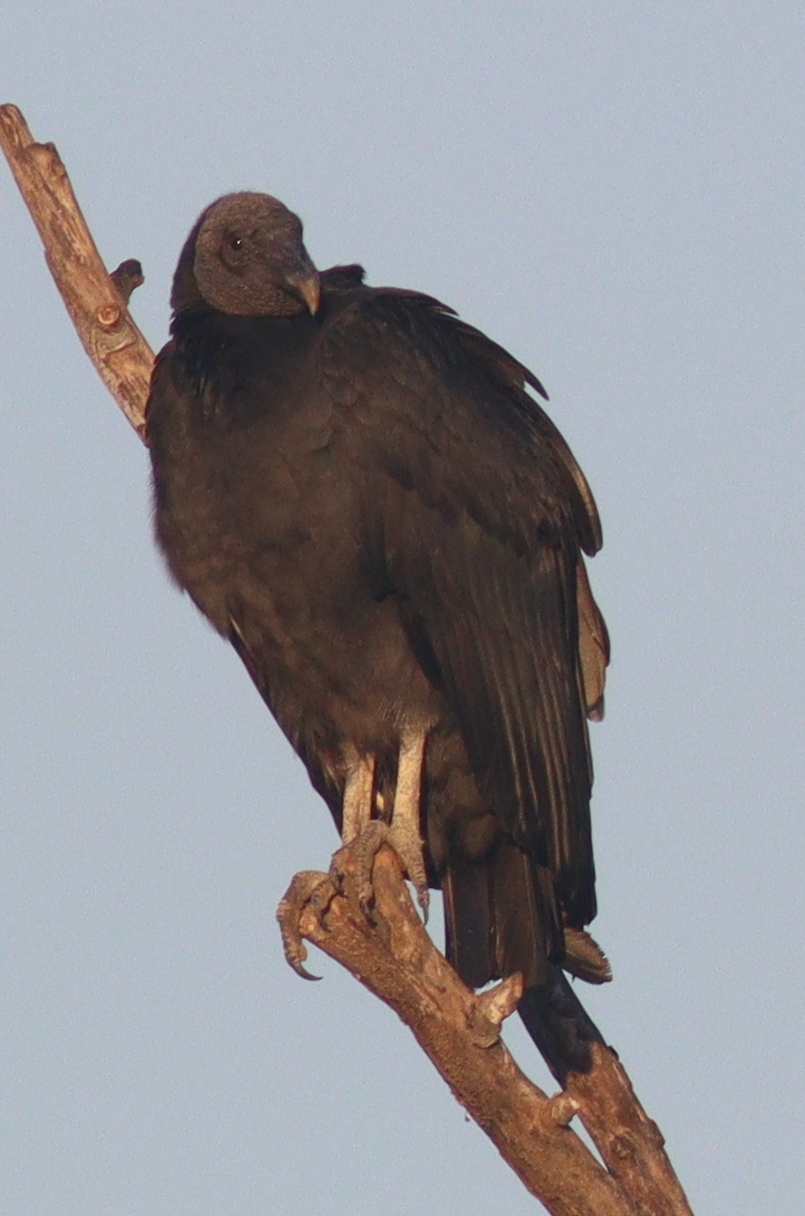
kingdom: Animalia
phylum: Chordata
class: Aves
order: Accipitriformes
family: Cathartidae
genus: Coragyps
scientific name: Coragyps atratus
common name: Black vulture
